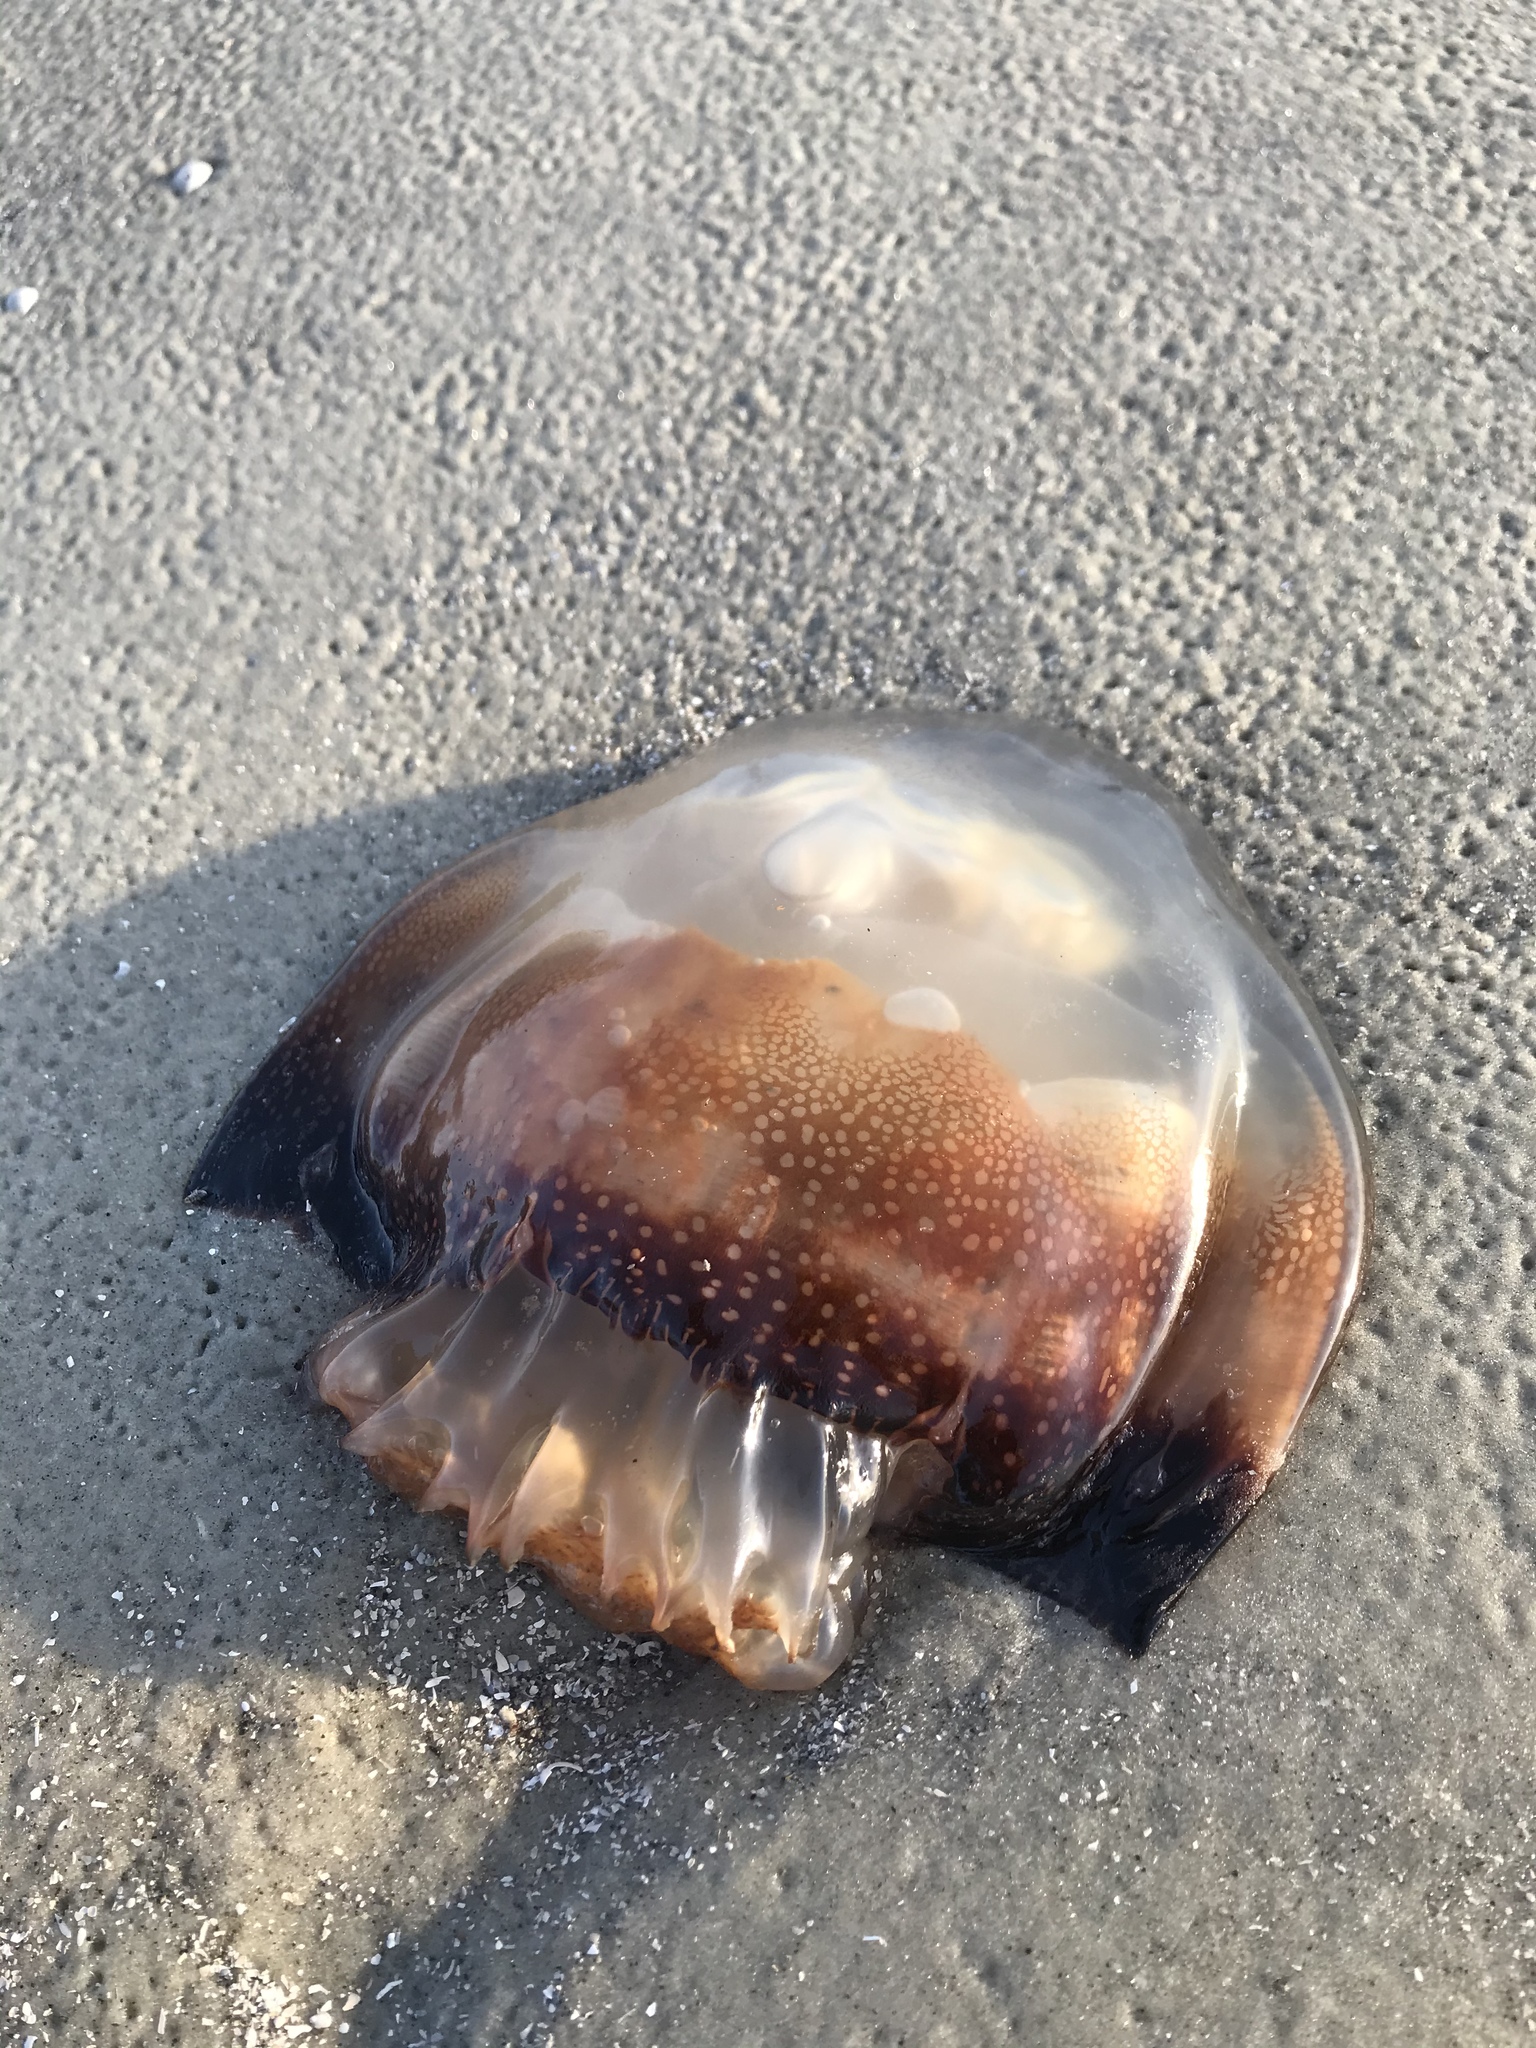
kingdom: Animalia
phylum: Cnidaria
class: Scyphozoa
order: Rhizostomeae
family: Stomolophidae
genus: Stomolophus
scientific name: Stomolophus meleagris
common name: Cabbagehead
